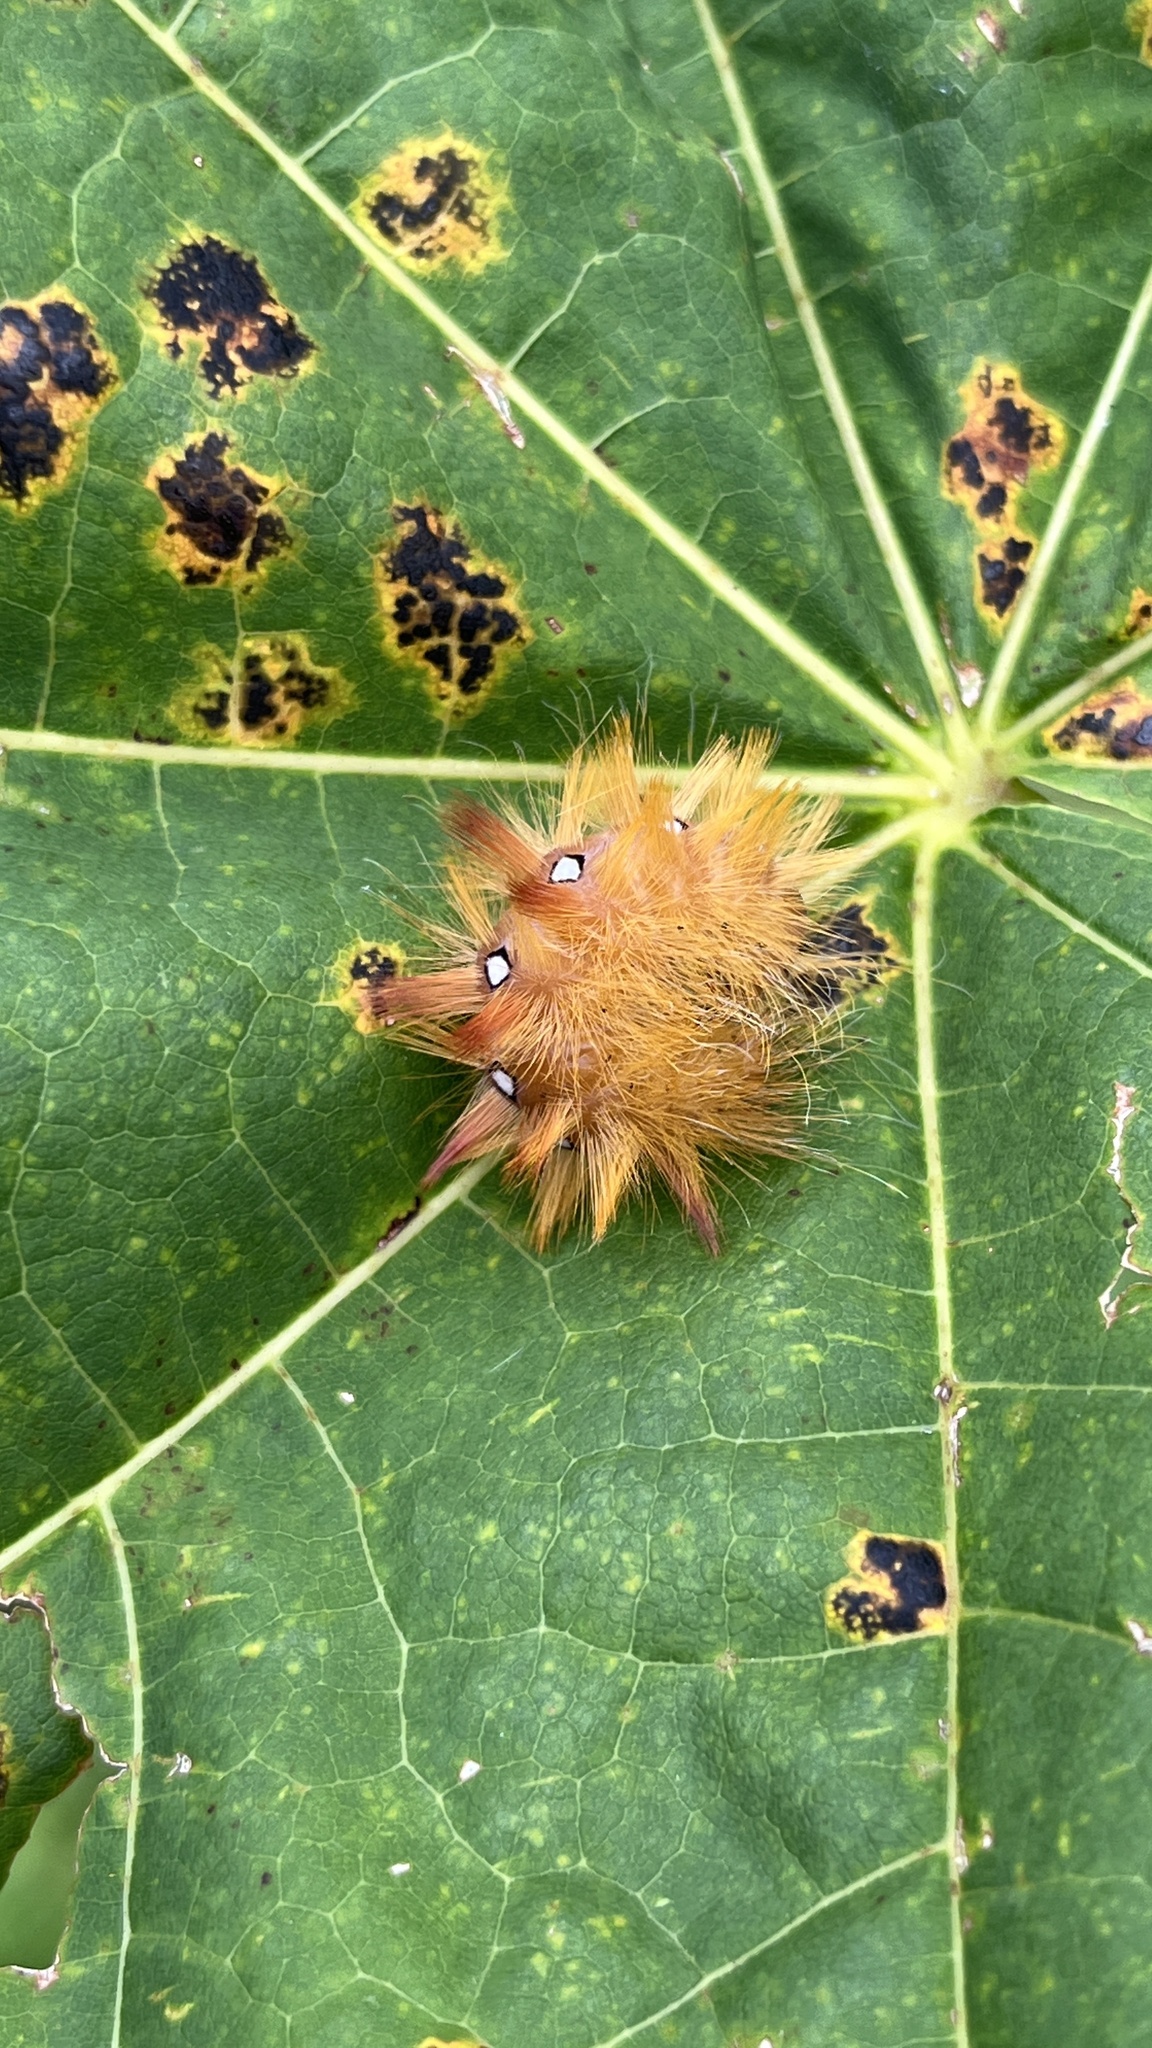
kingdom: Animalia
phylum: Arthropoda
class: Insecta
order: Lepidoptera
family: Noctuidae
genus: Acronicta
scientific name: Acronicta aceris
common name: Sycamore
